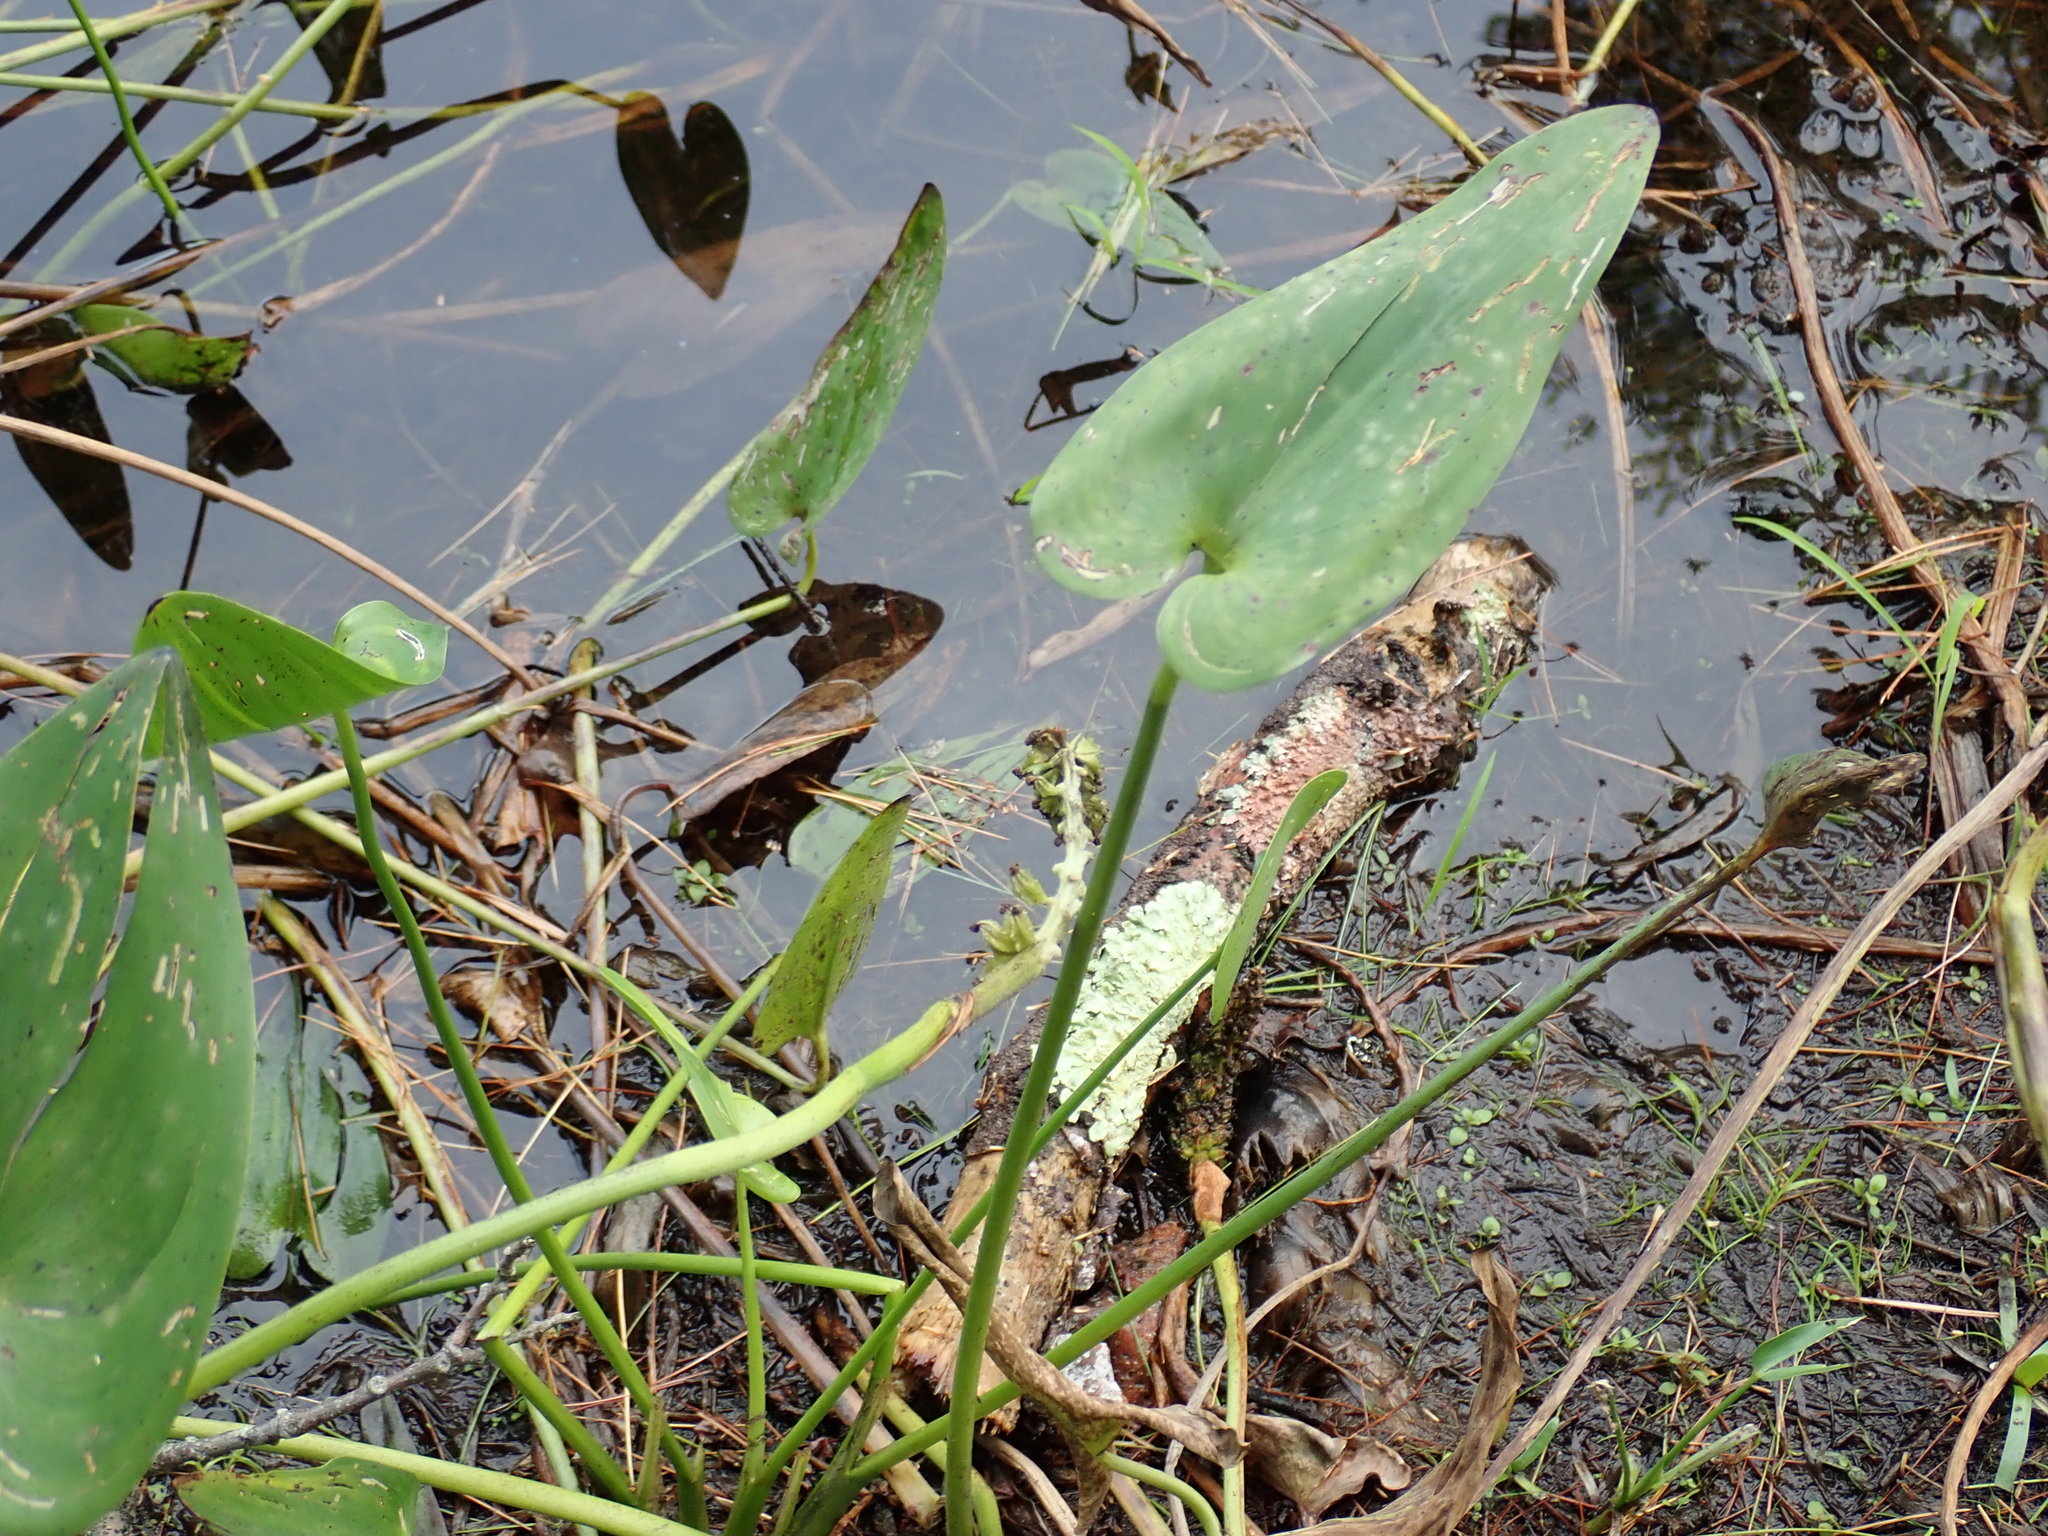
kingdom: Plantae
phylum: Tracheophyta
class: Liliopsida
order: Commelinales
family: Pontederiaceae
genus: Pontederia
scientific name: Pontederia cordata
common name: Pickerelweed
